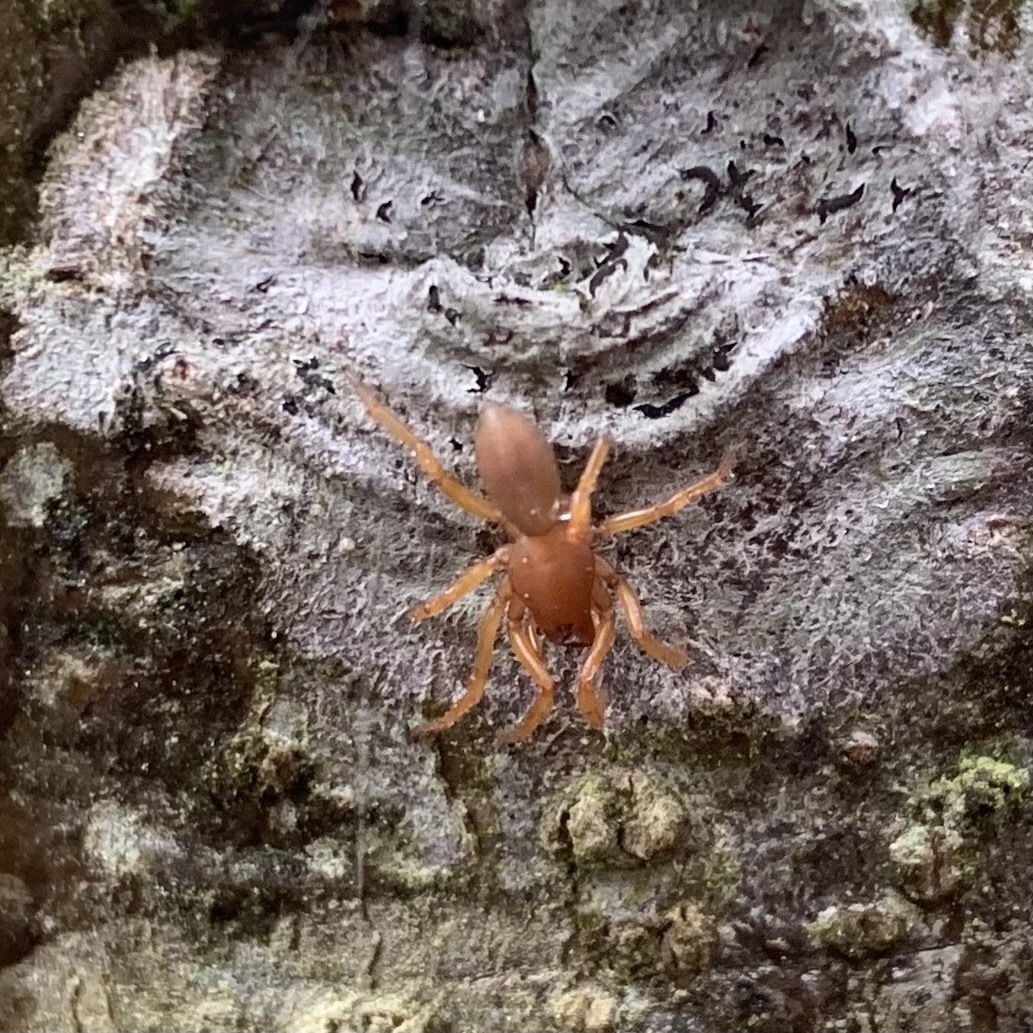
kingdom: Animalia
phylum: Arthropoda
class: Arachnida
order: Araneae
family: Dysderidae
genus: Dysdera
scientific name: Dysdera crocata
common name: Woodlouse spider
